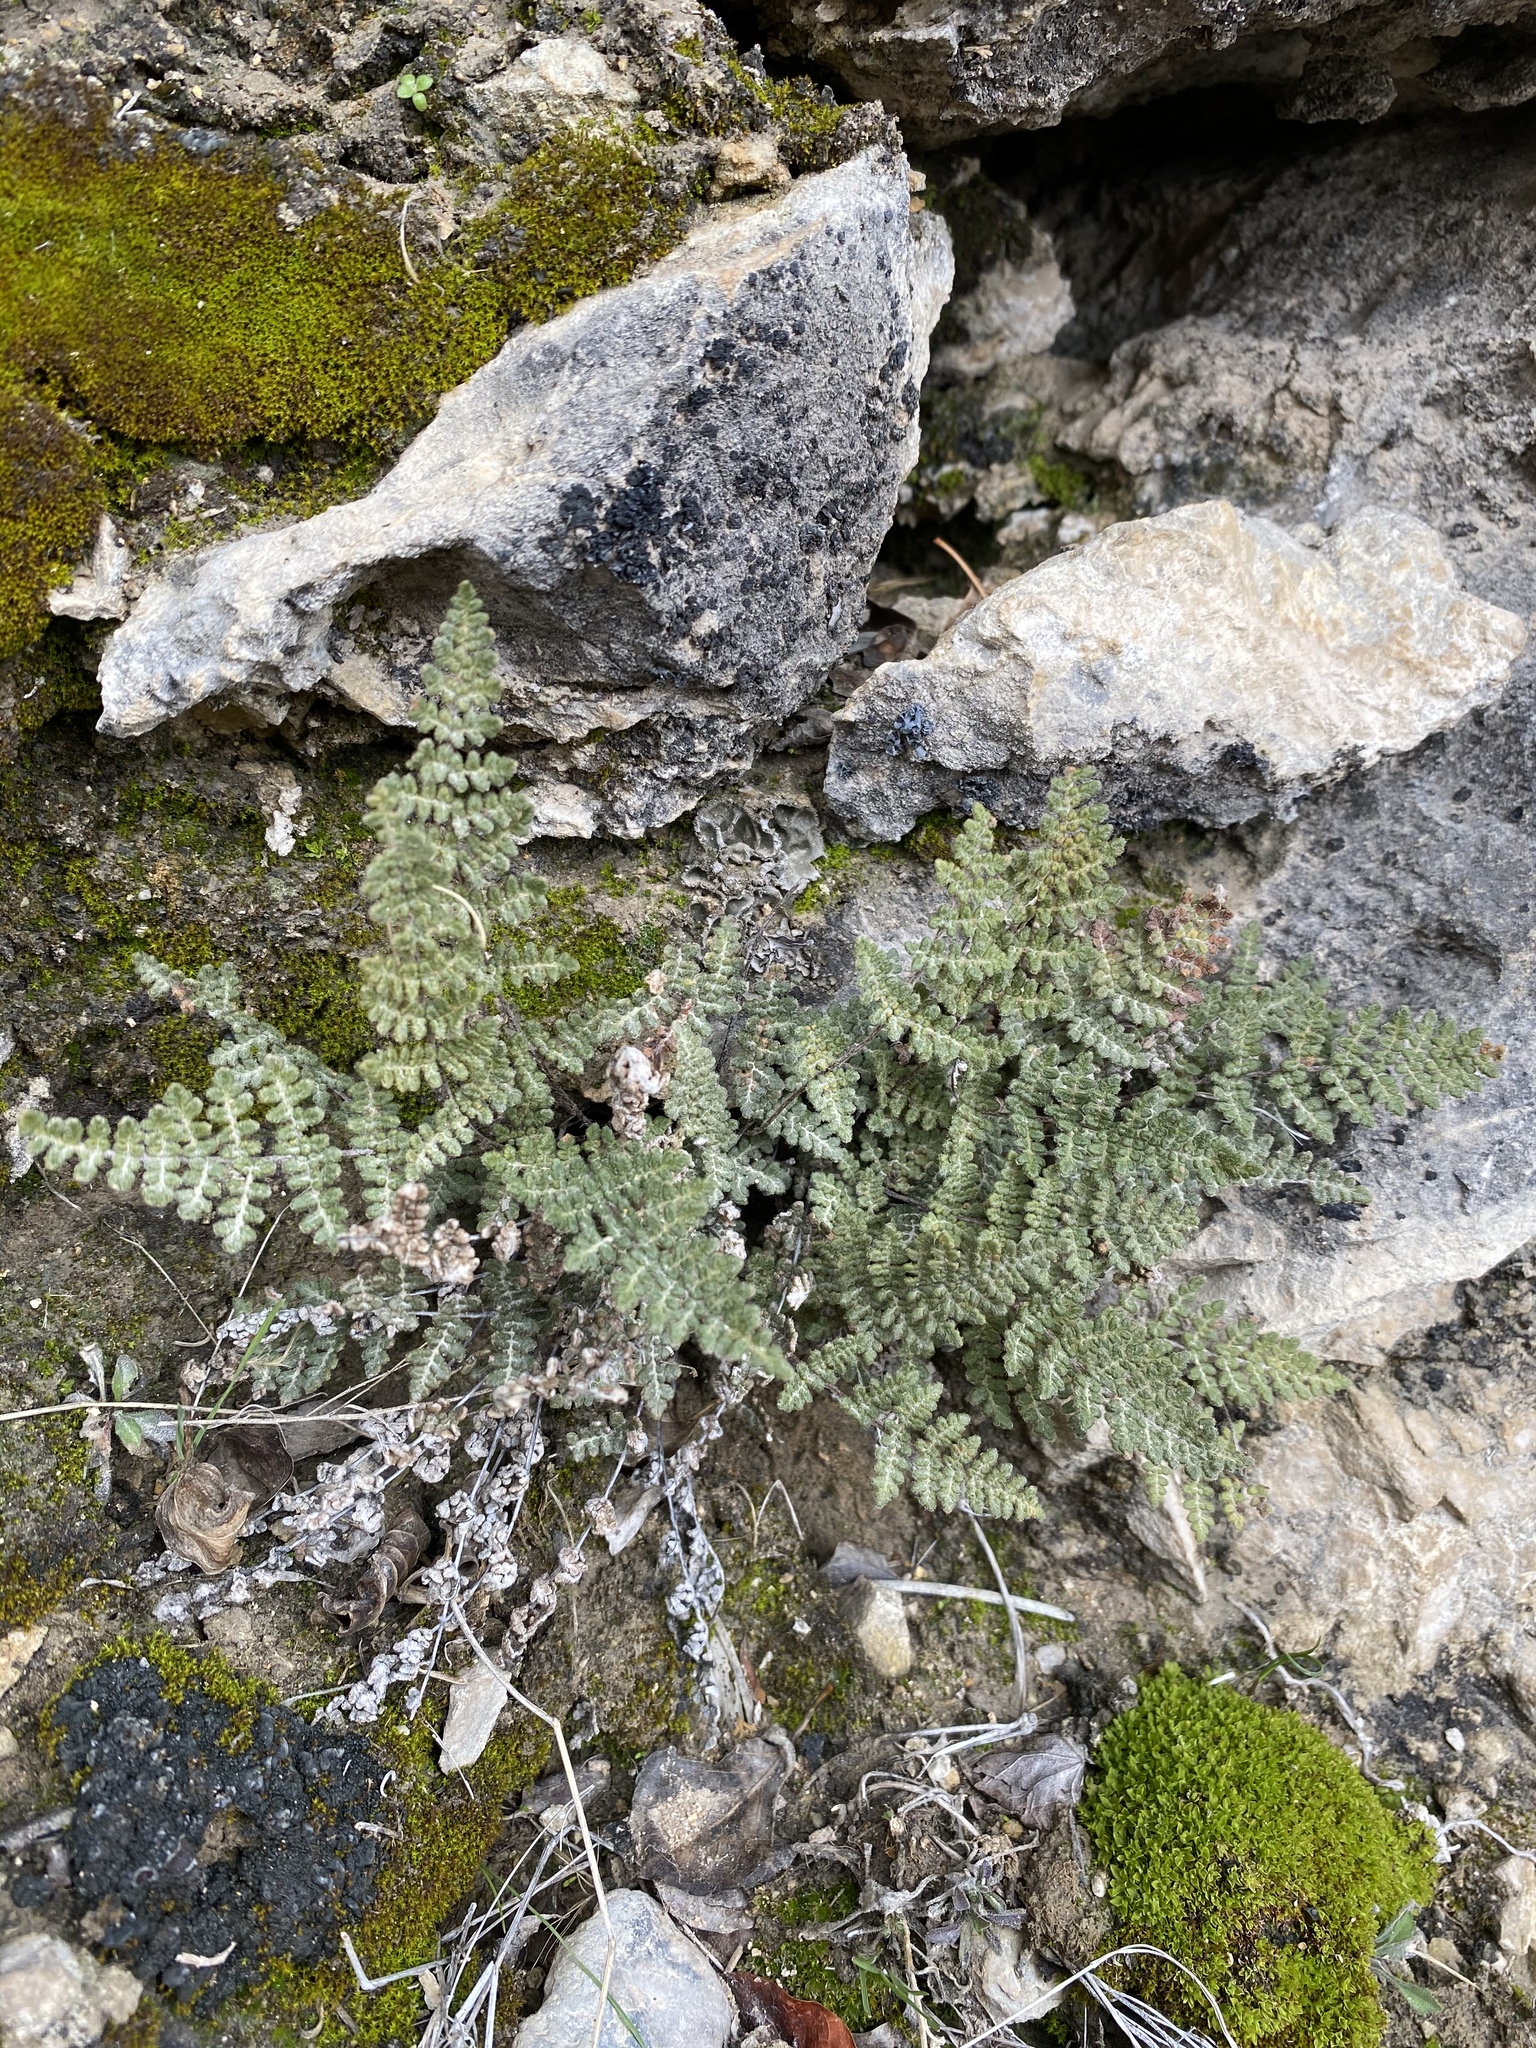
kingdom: Plantae
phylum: Tracheophyta
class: Polypodiopsida
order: Polypodiales
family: Pteridaceae
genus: Myriopteris
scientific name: Myriopteris gracilis
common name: Fee's lip fern
